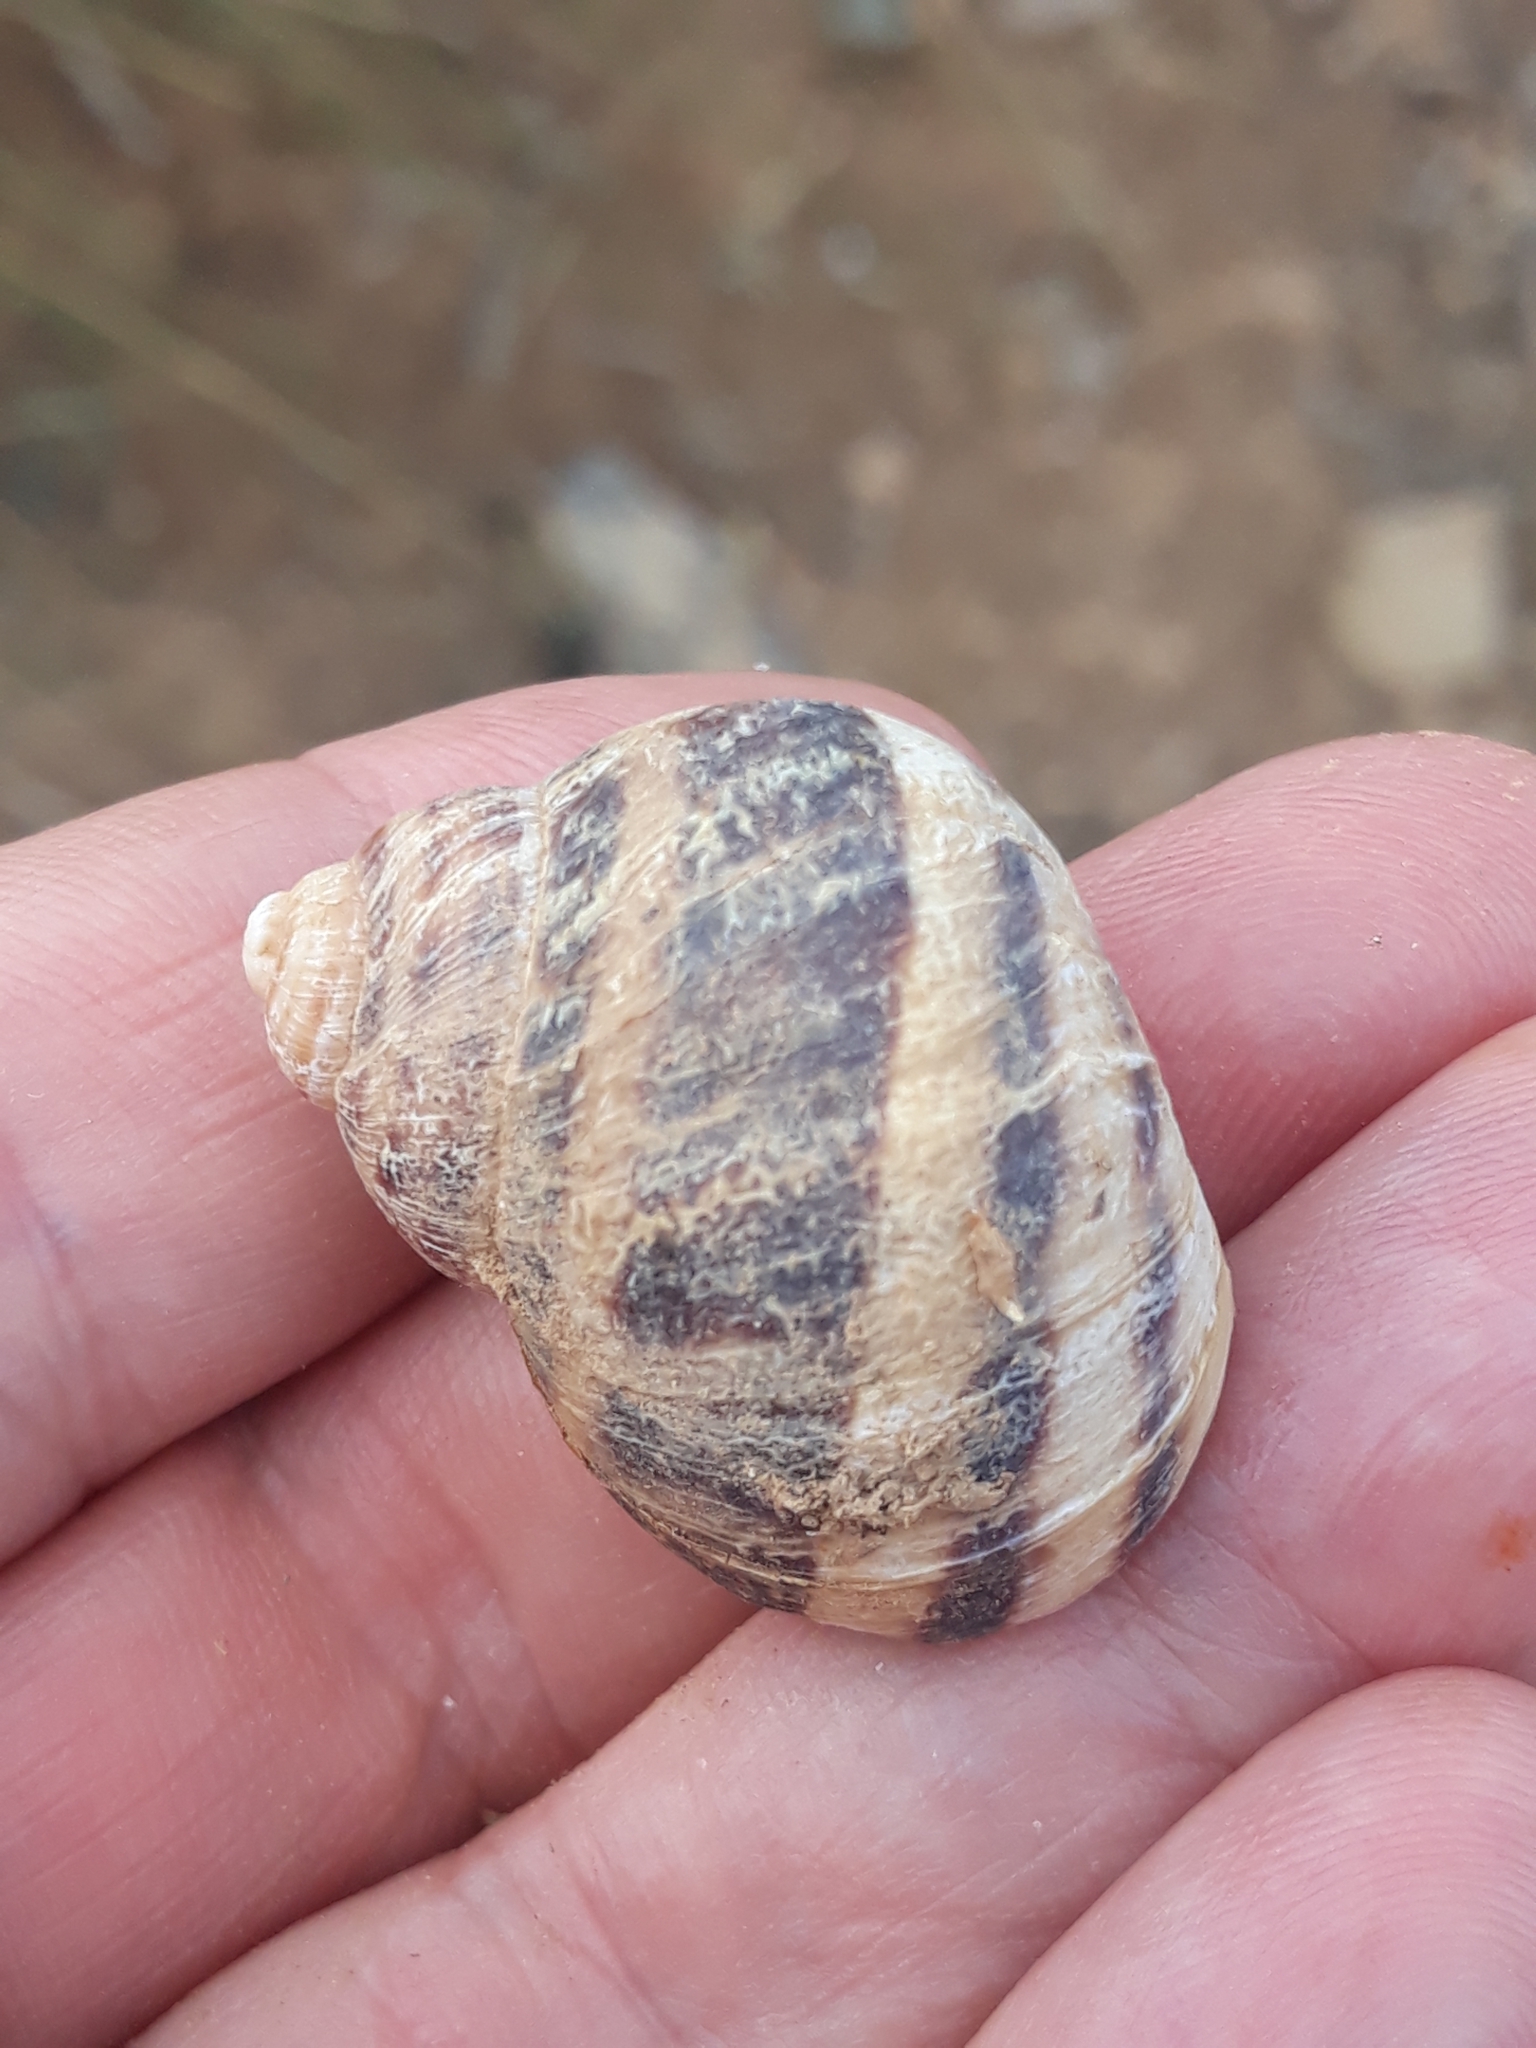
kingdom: Animalia
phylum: Mollusca
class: Gastropoda
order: Stylommatophora
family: Helicidae
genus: Cornu
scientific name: Cornu aspersum
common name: Brown garden snail
